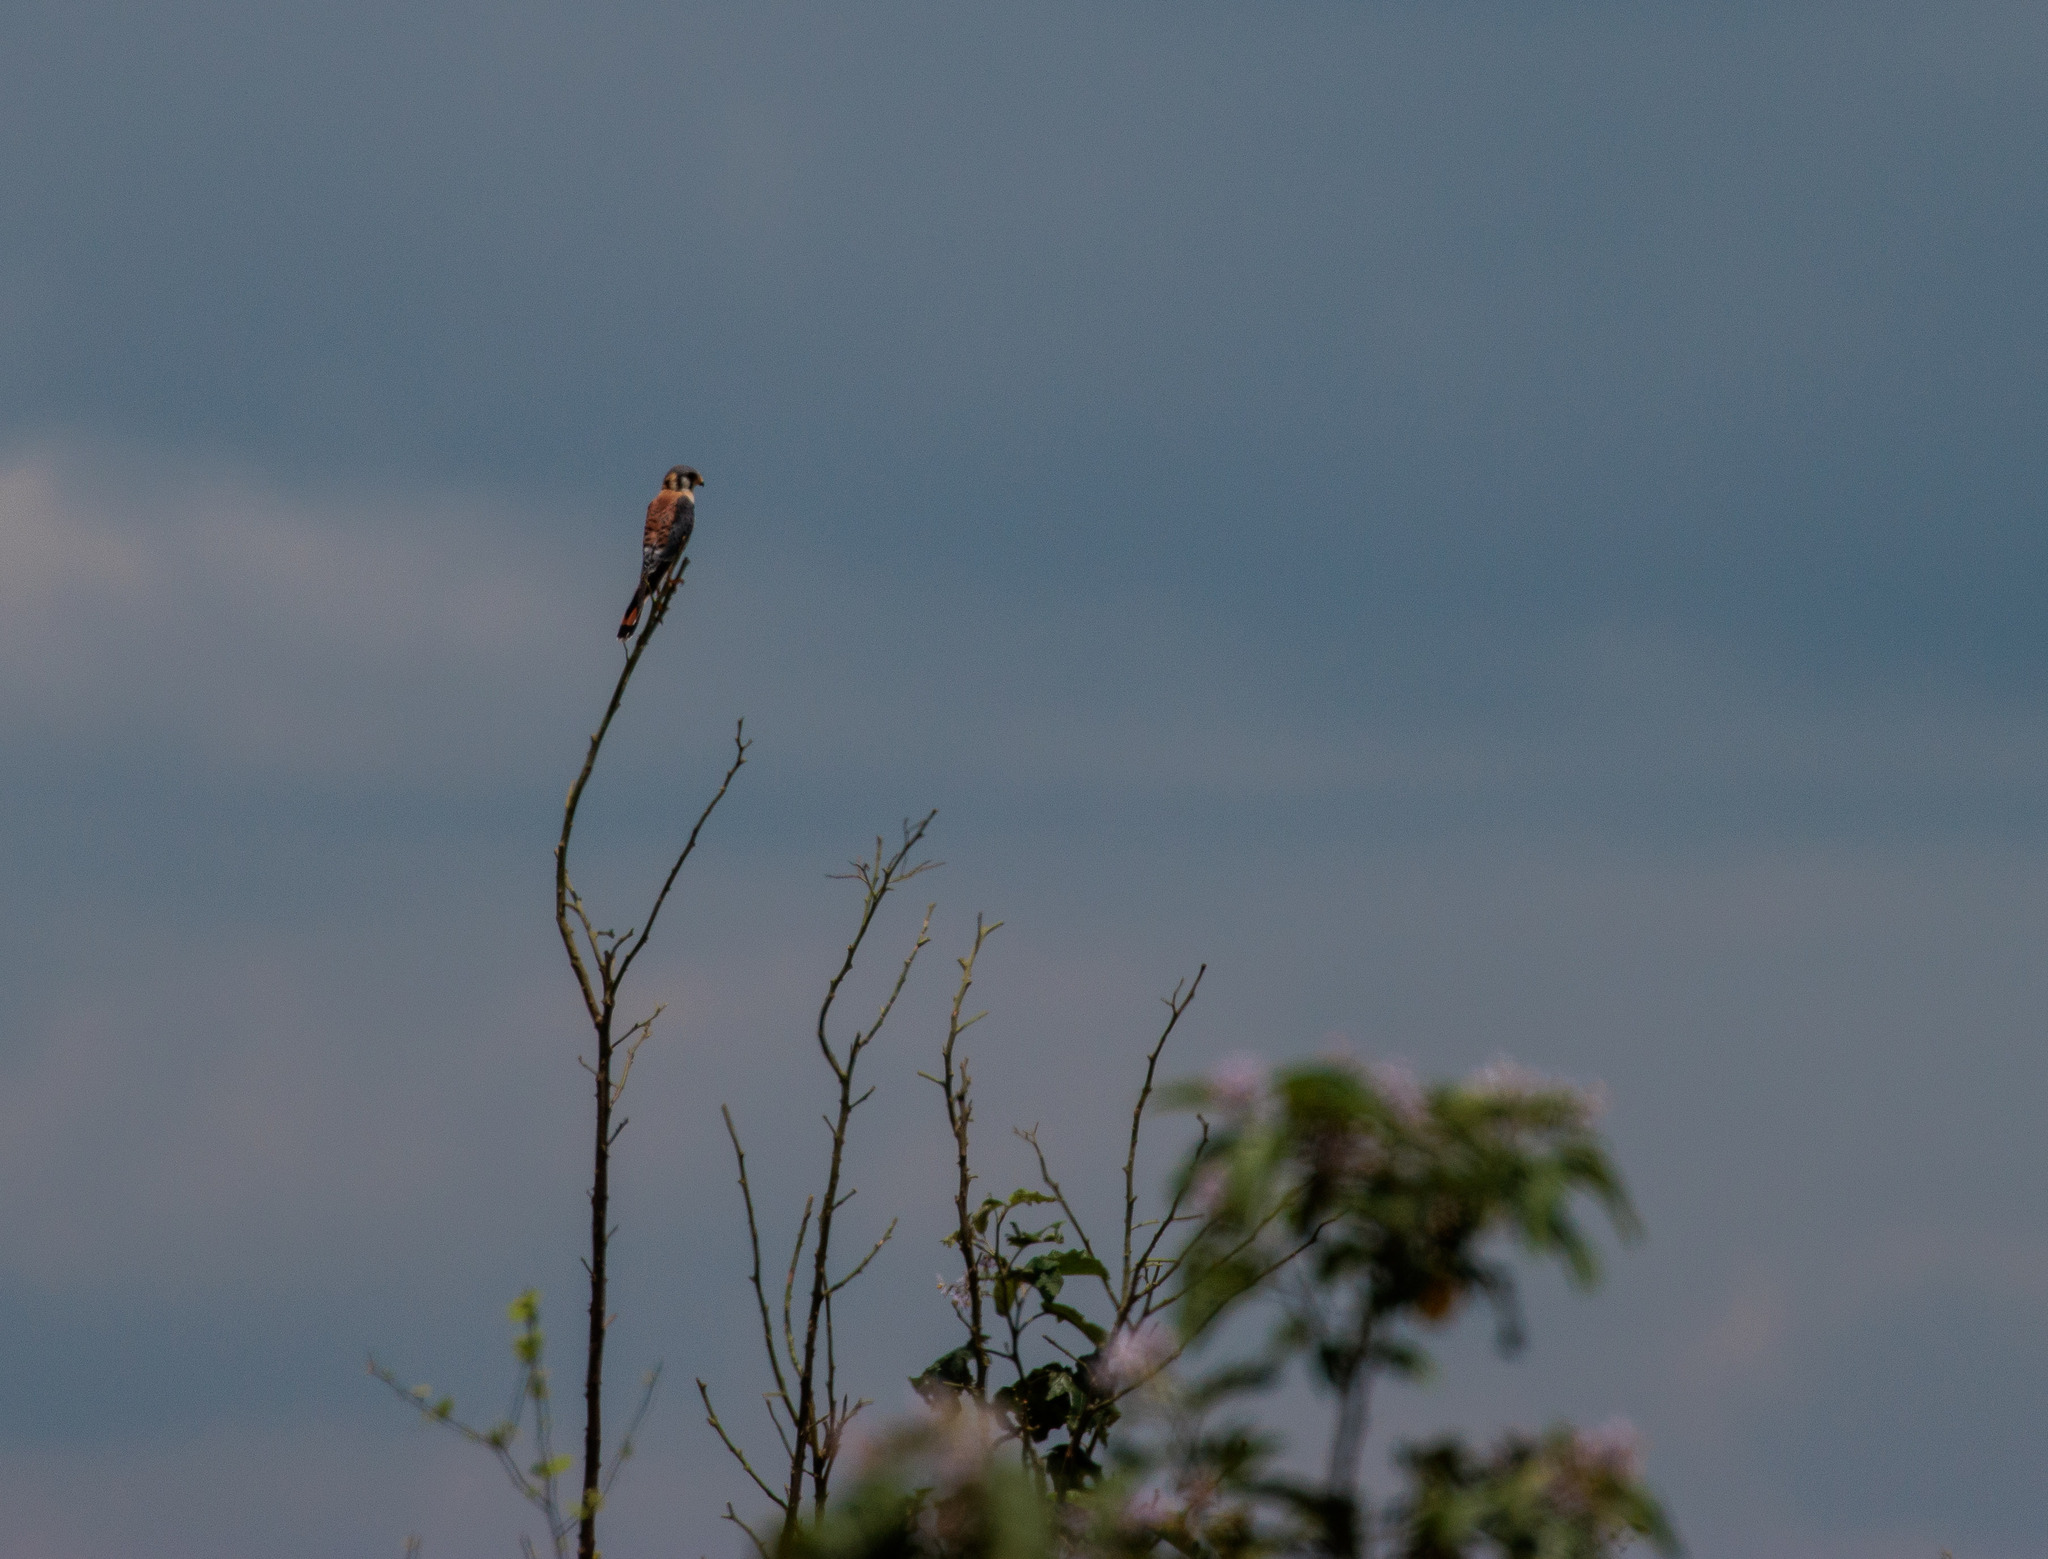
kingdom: Animalia
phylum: Chordata
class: Aves
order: Falconiformes
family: Falconidae
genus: Falco
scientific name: Falco sparverius
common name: American kestrel
